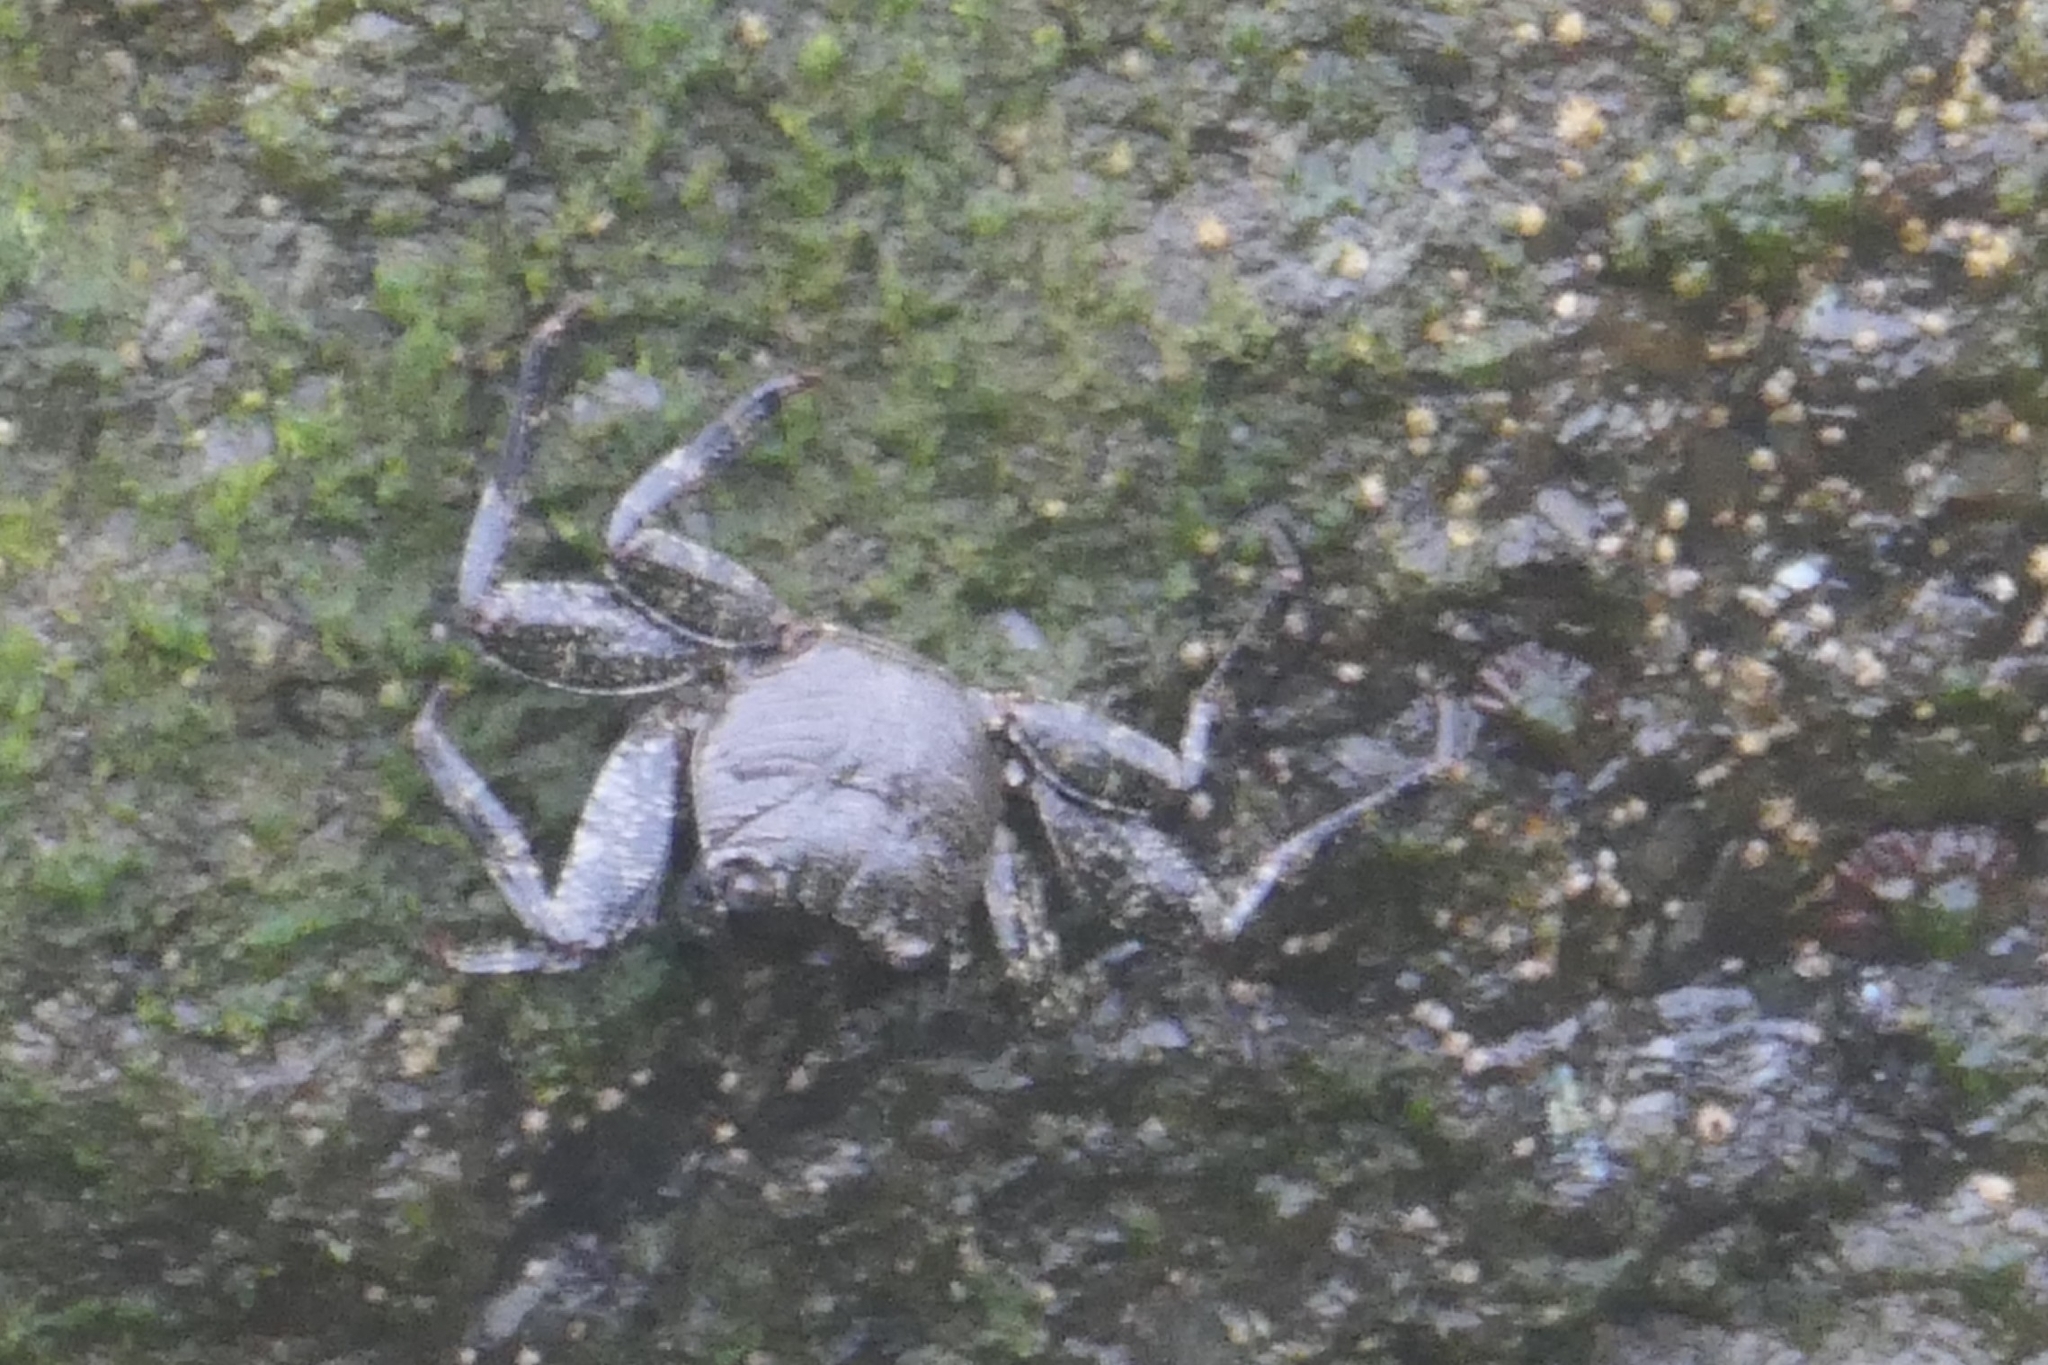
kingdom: Animalia
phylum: Arthropoda
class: Malacostraca
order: Decapoda
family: Grapsidae
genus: Grapsus
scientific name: Grapsus adscensionis
